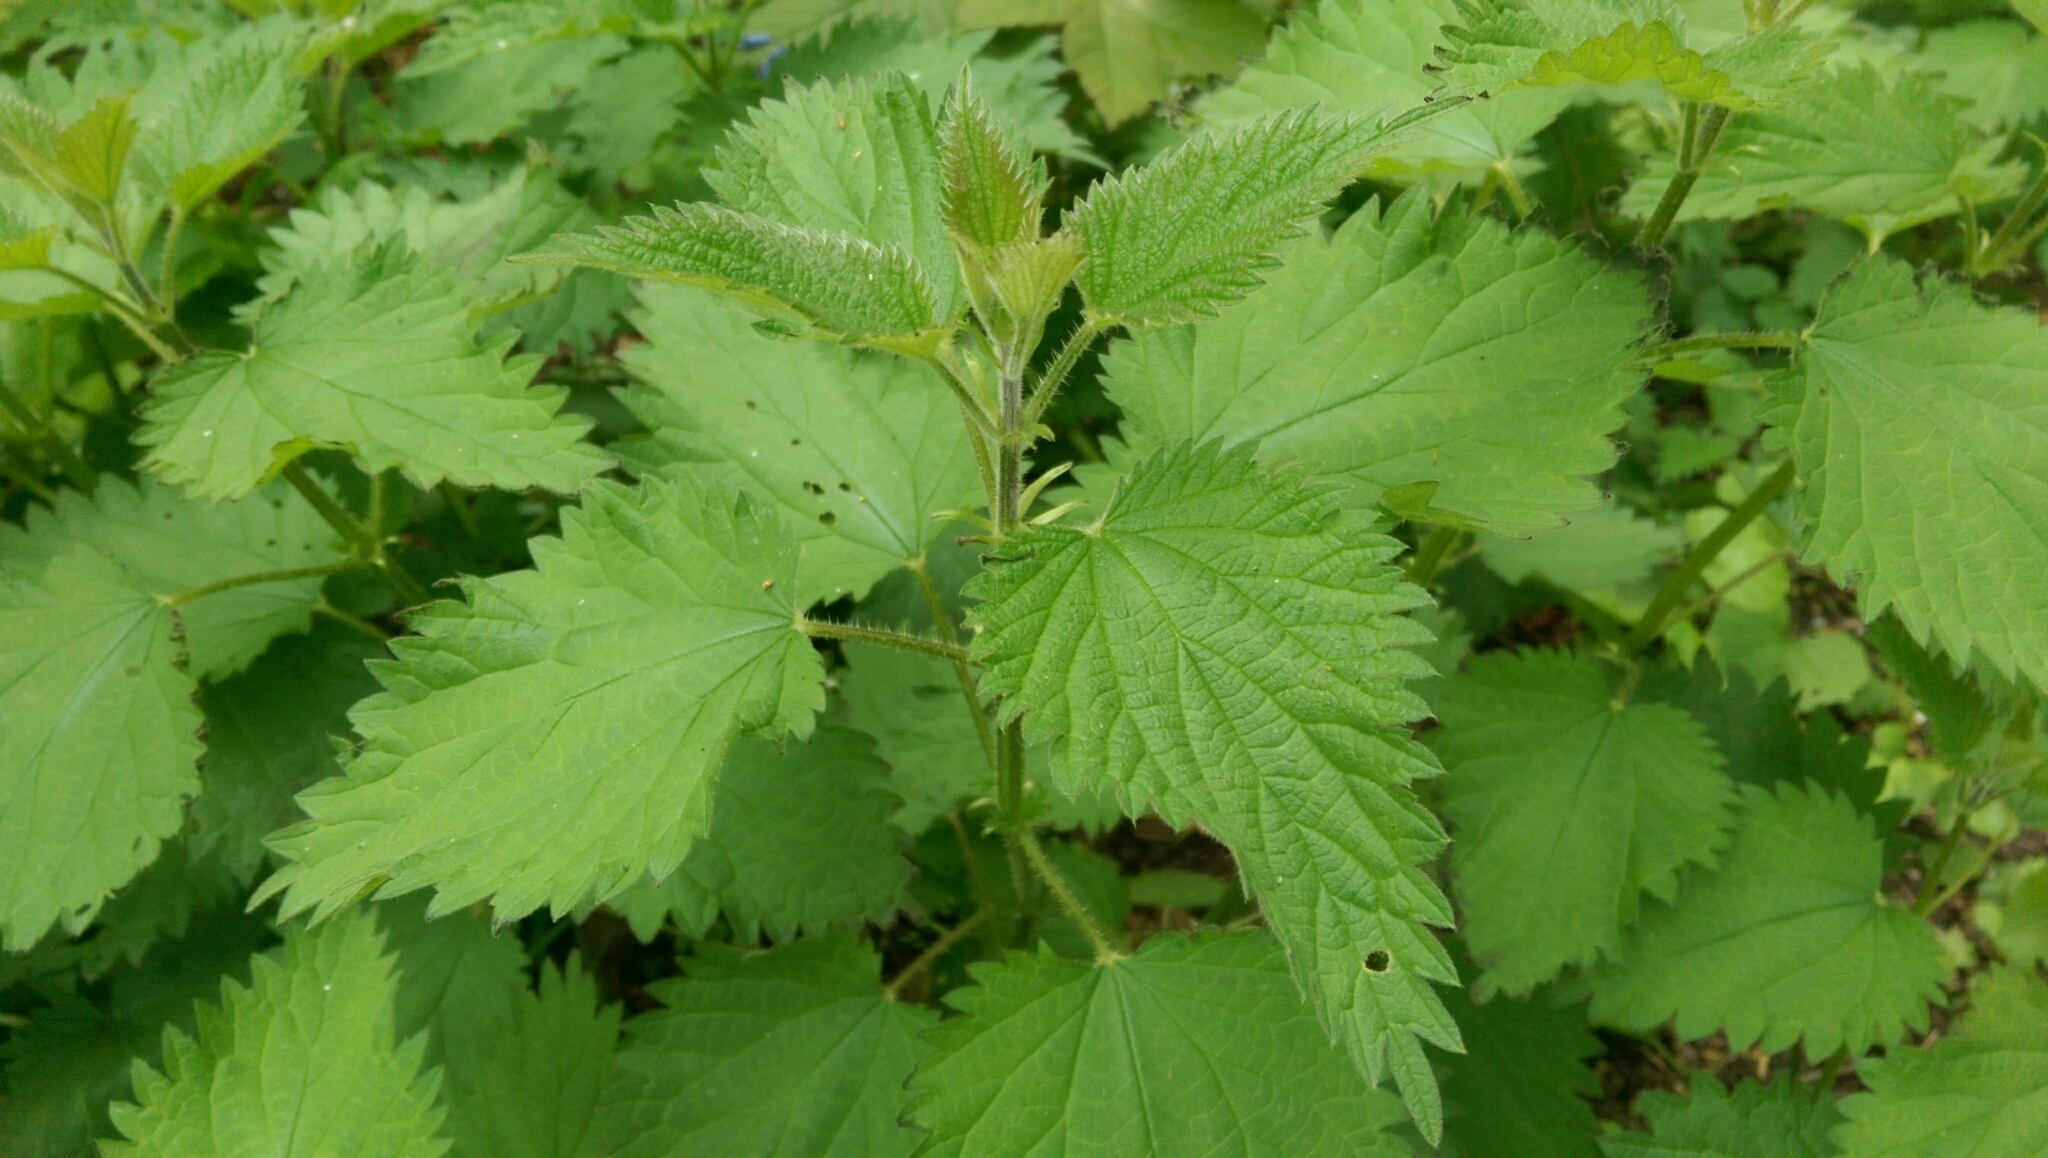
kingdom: Plantae
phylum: Tracheophyta
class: Magnoliopsida
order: Rosales
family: Urticaceae
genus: Urtica
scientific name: Urtica dioica
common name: Common nettle
